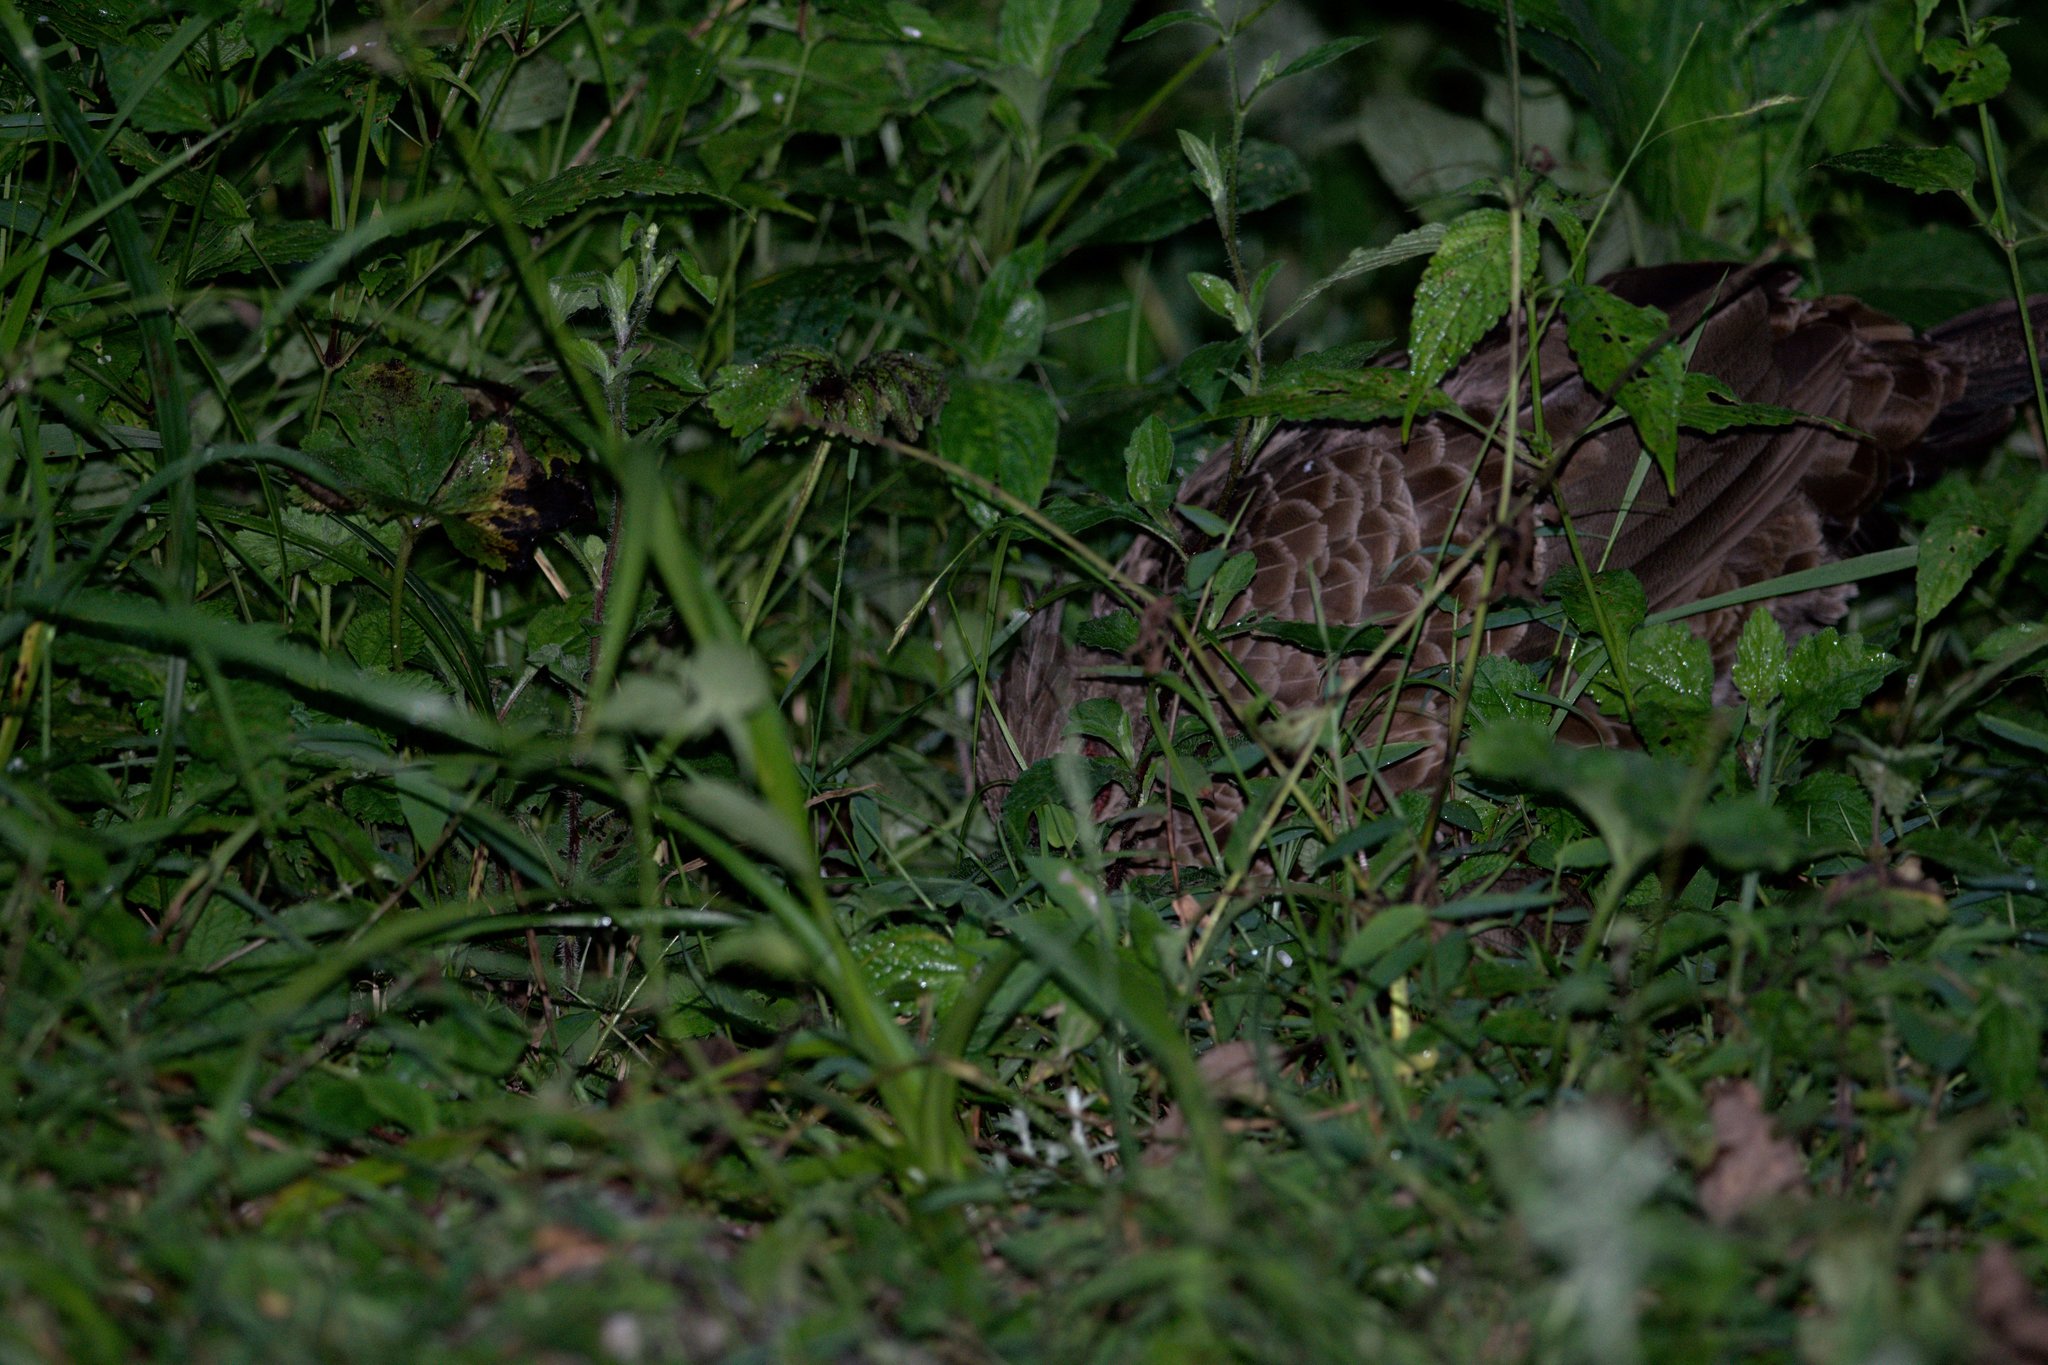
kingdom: Animalia
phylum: Chordata
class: Aves
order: Galliformes
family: Phasianidae
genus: Lophura
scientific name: Lophura leucomelanos
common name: Kalij pheasant
